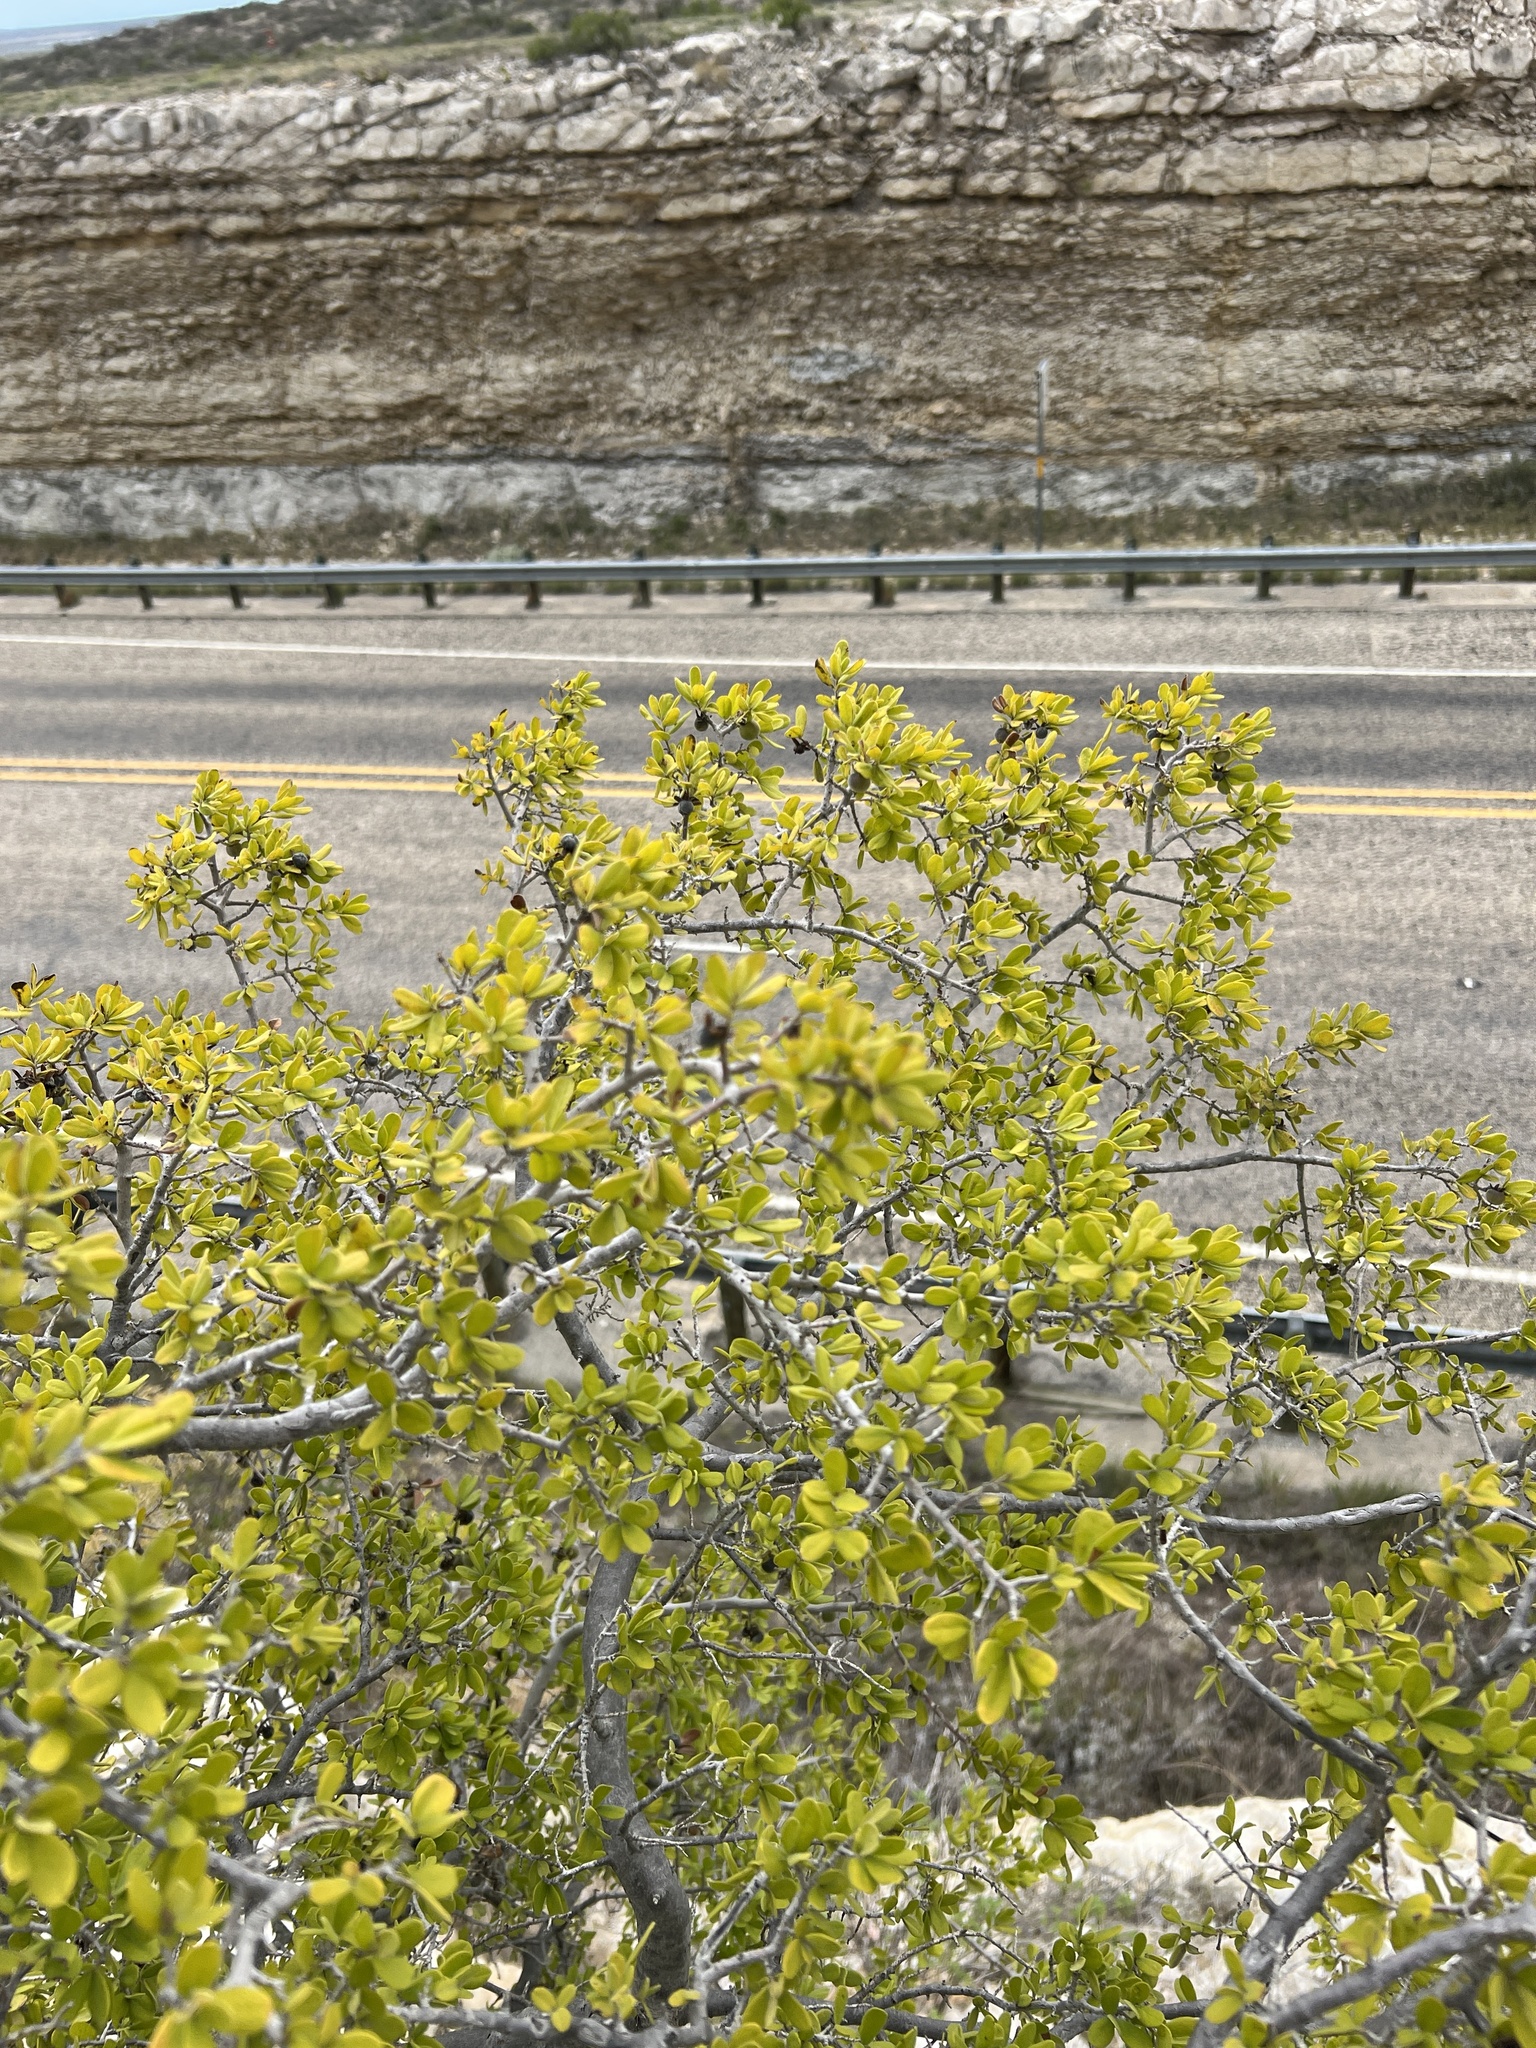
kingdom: Plantae
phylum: Tracheophyta
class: Magnoliopsida
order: Ericales
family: Ebenaceae
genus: Diospyros
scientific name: Diospyros texana
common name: Texas persimmon
